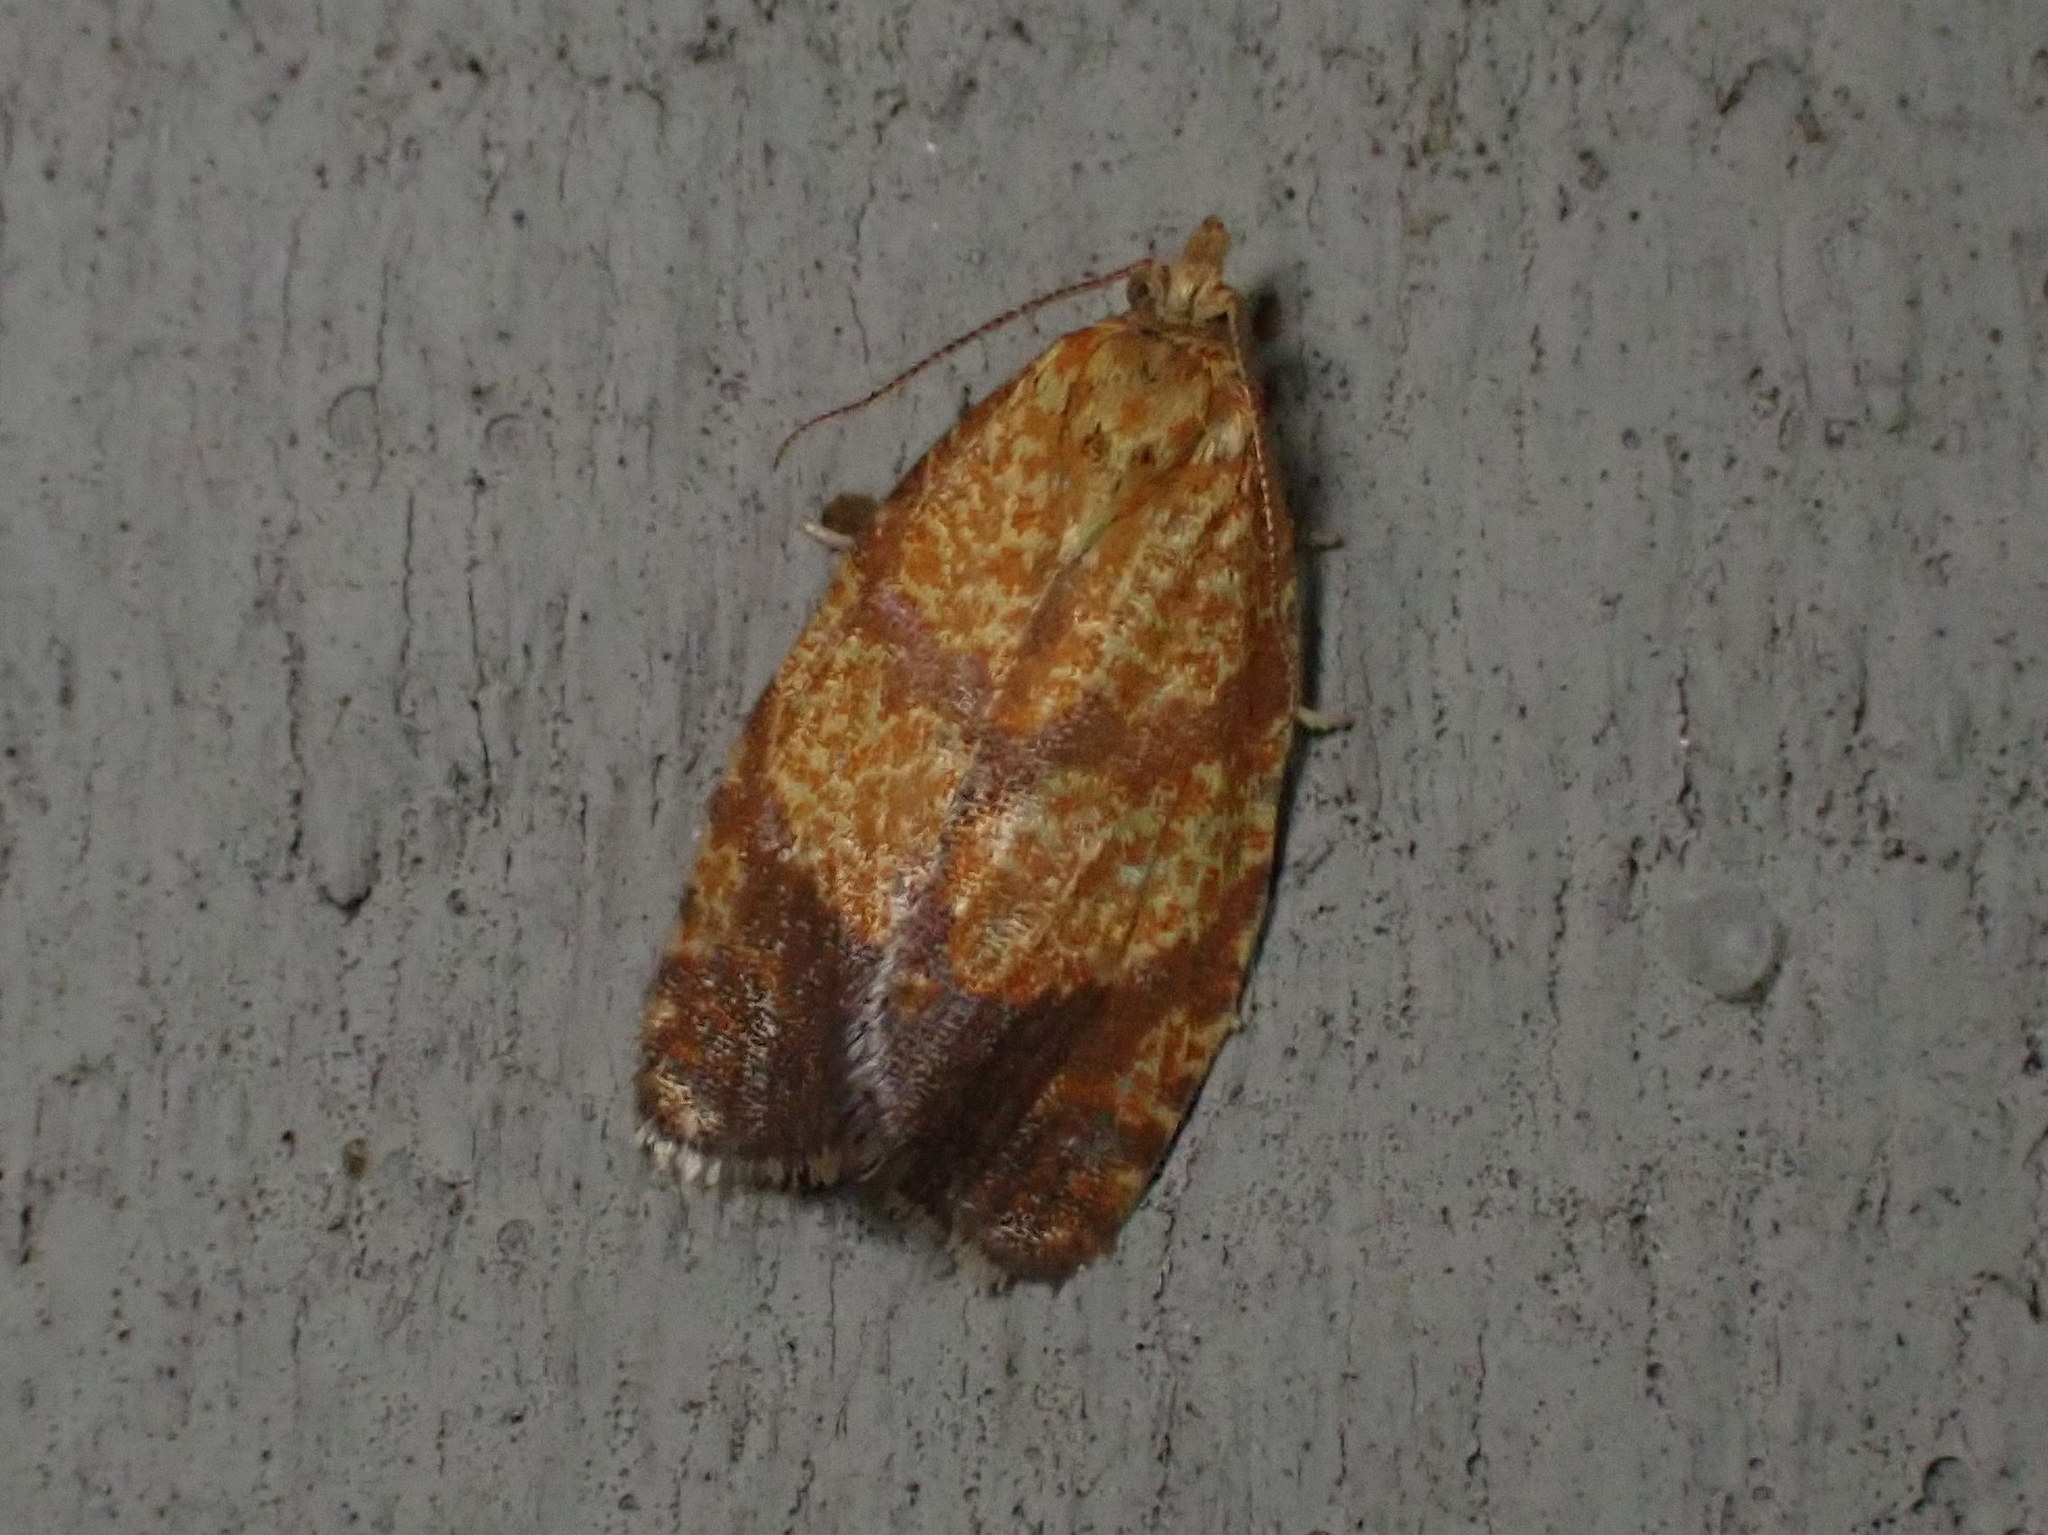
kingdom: Animalia
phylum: Arthropoda
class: Insecta
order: Lepidoptera
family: Tortricidae
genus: Argyrotaenia
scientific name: Argyrotaenia quadrifasciana
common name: Four-lined leafroller moth
